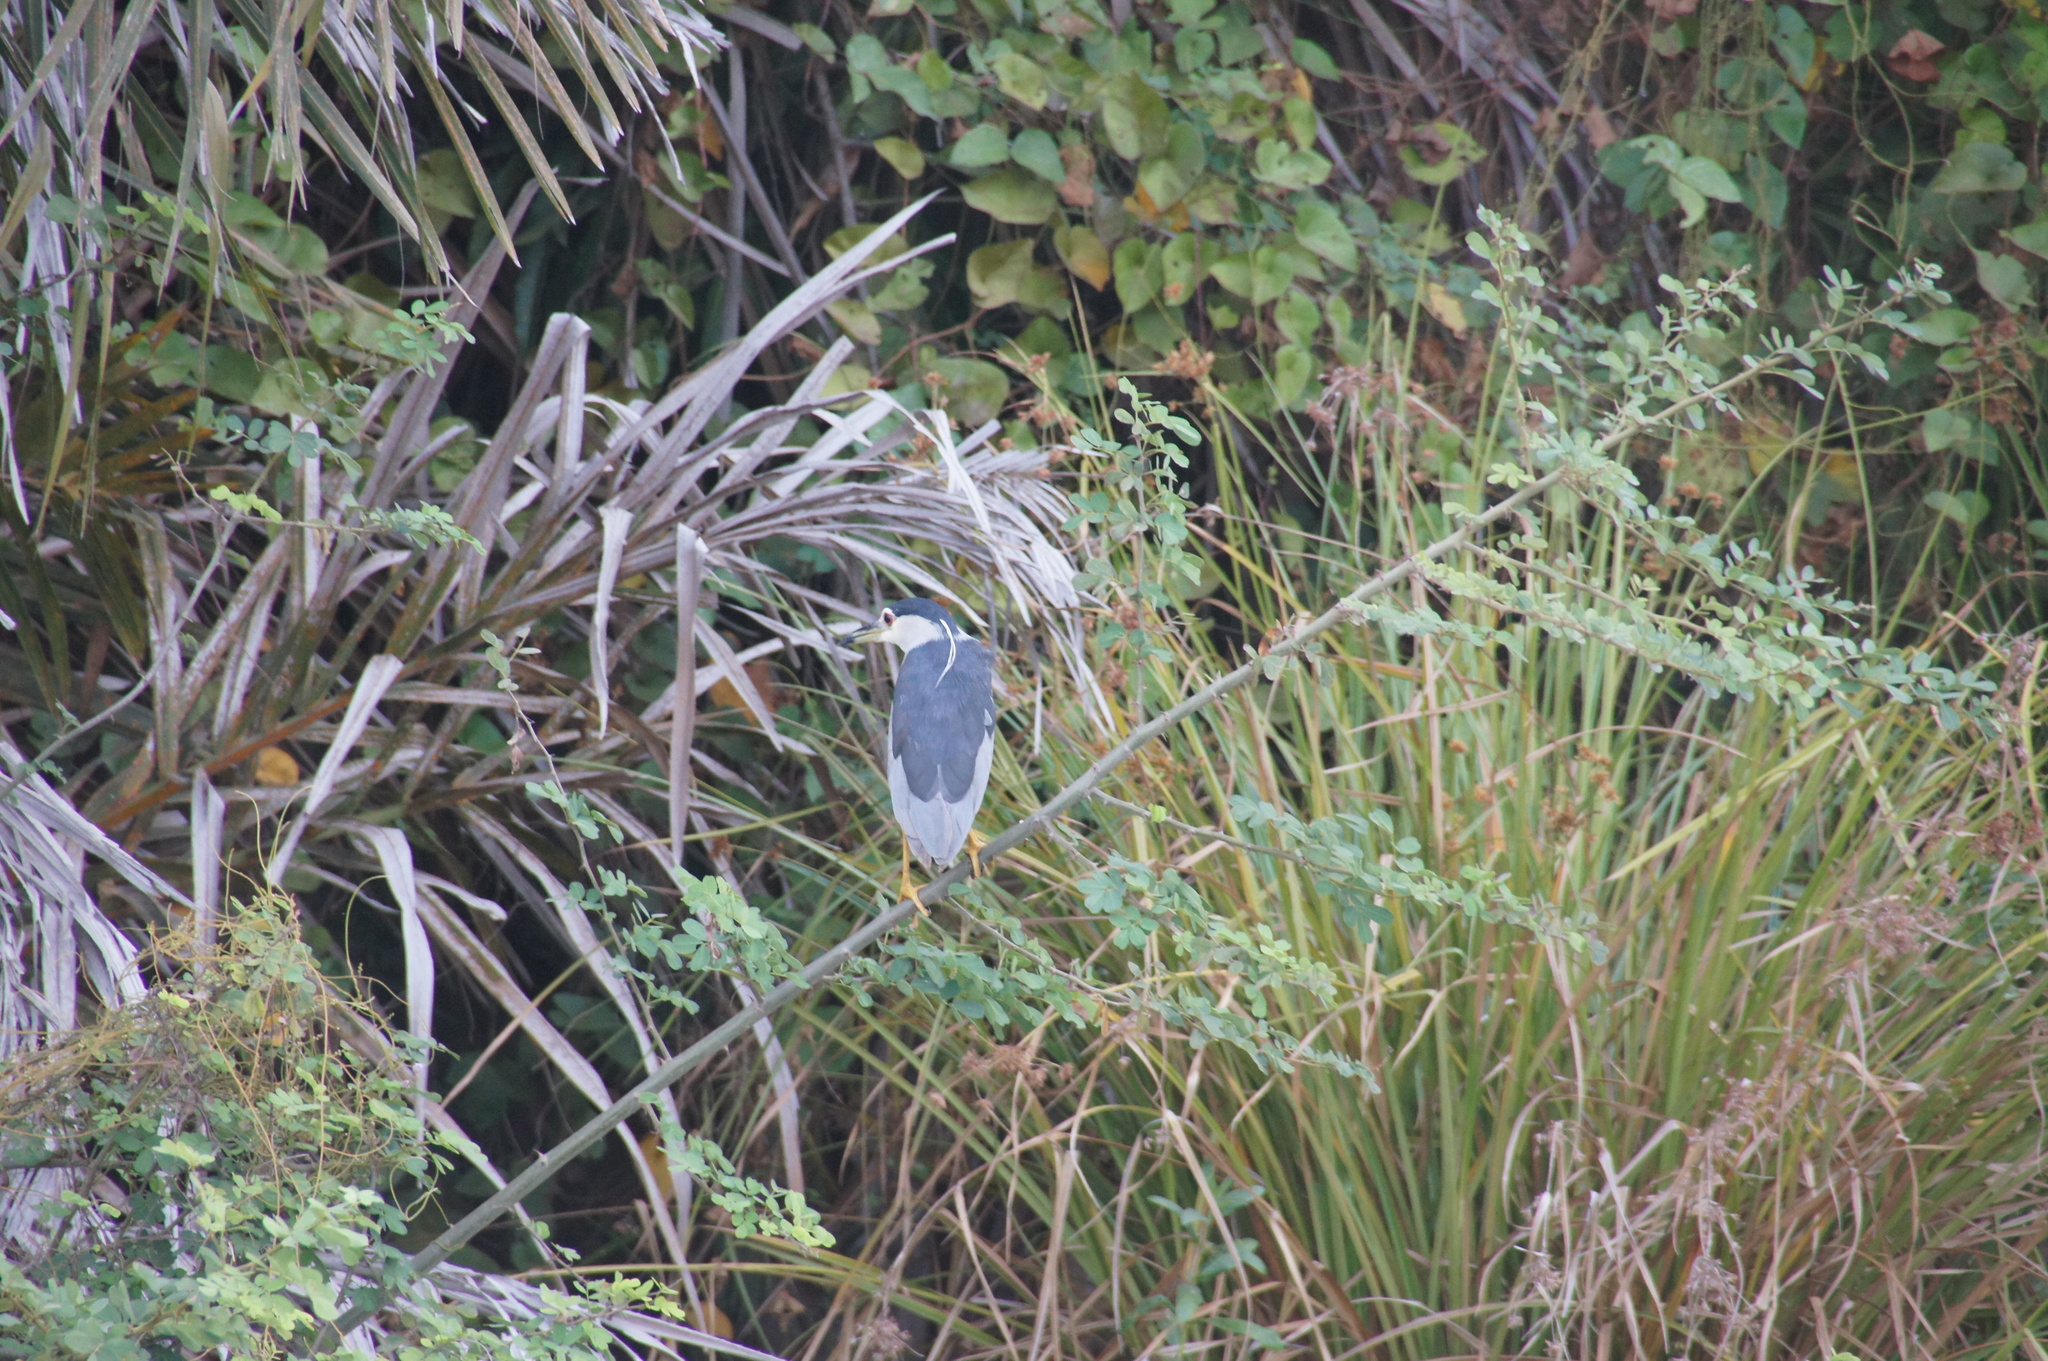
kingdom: Animalia
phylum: Chordata
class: Aves
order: Pelecaniformes
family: Ardeidae
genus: Nycticorax
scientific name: Nycticorax nycticorax
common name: Black-crowned night heron
